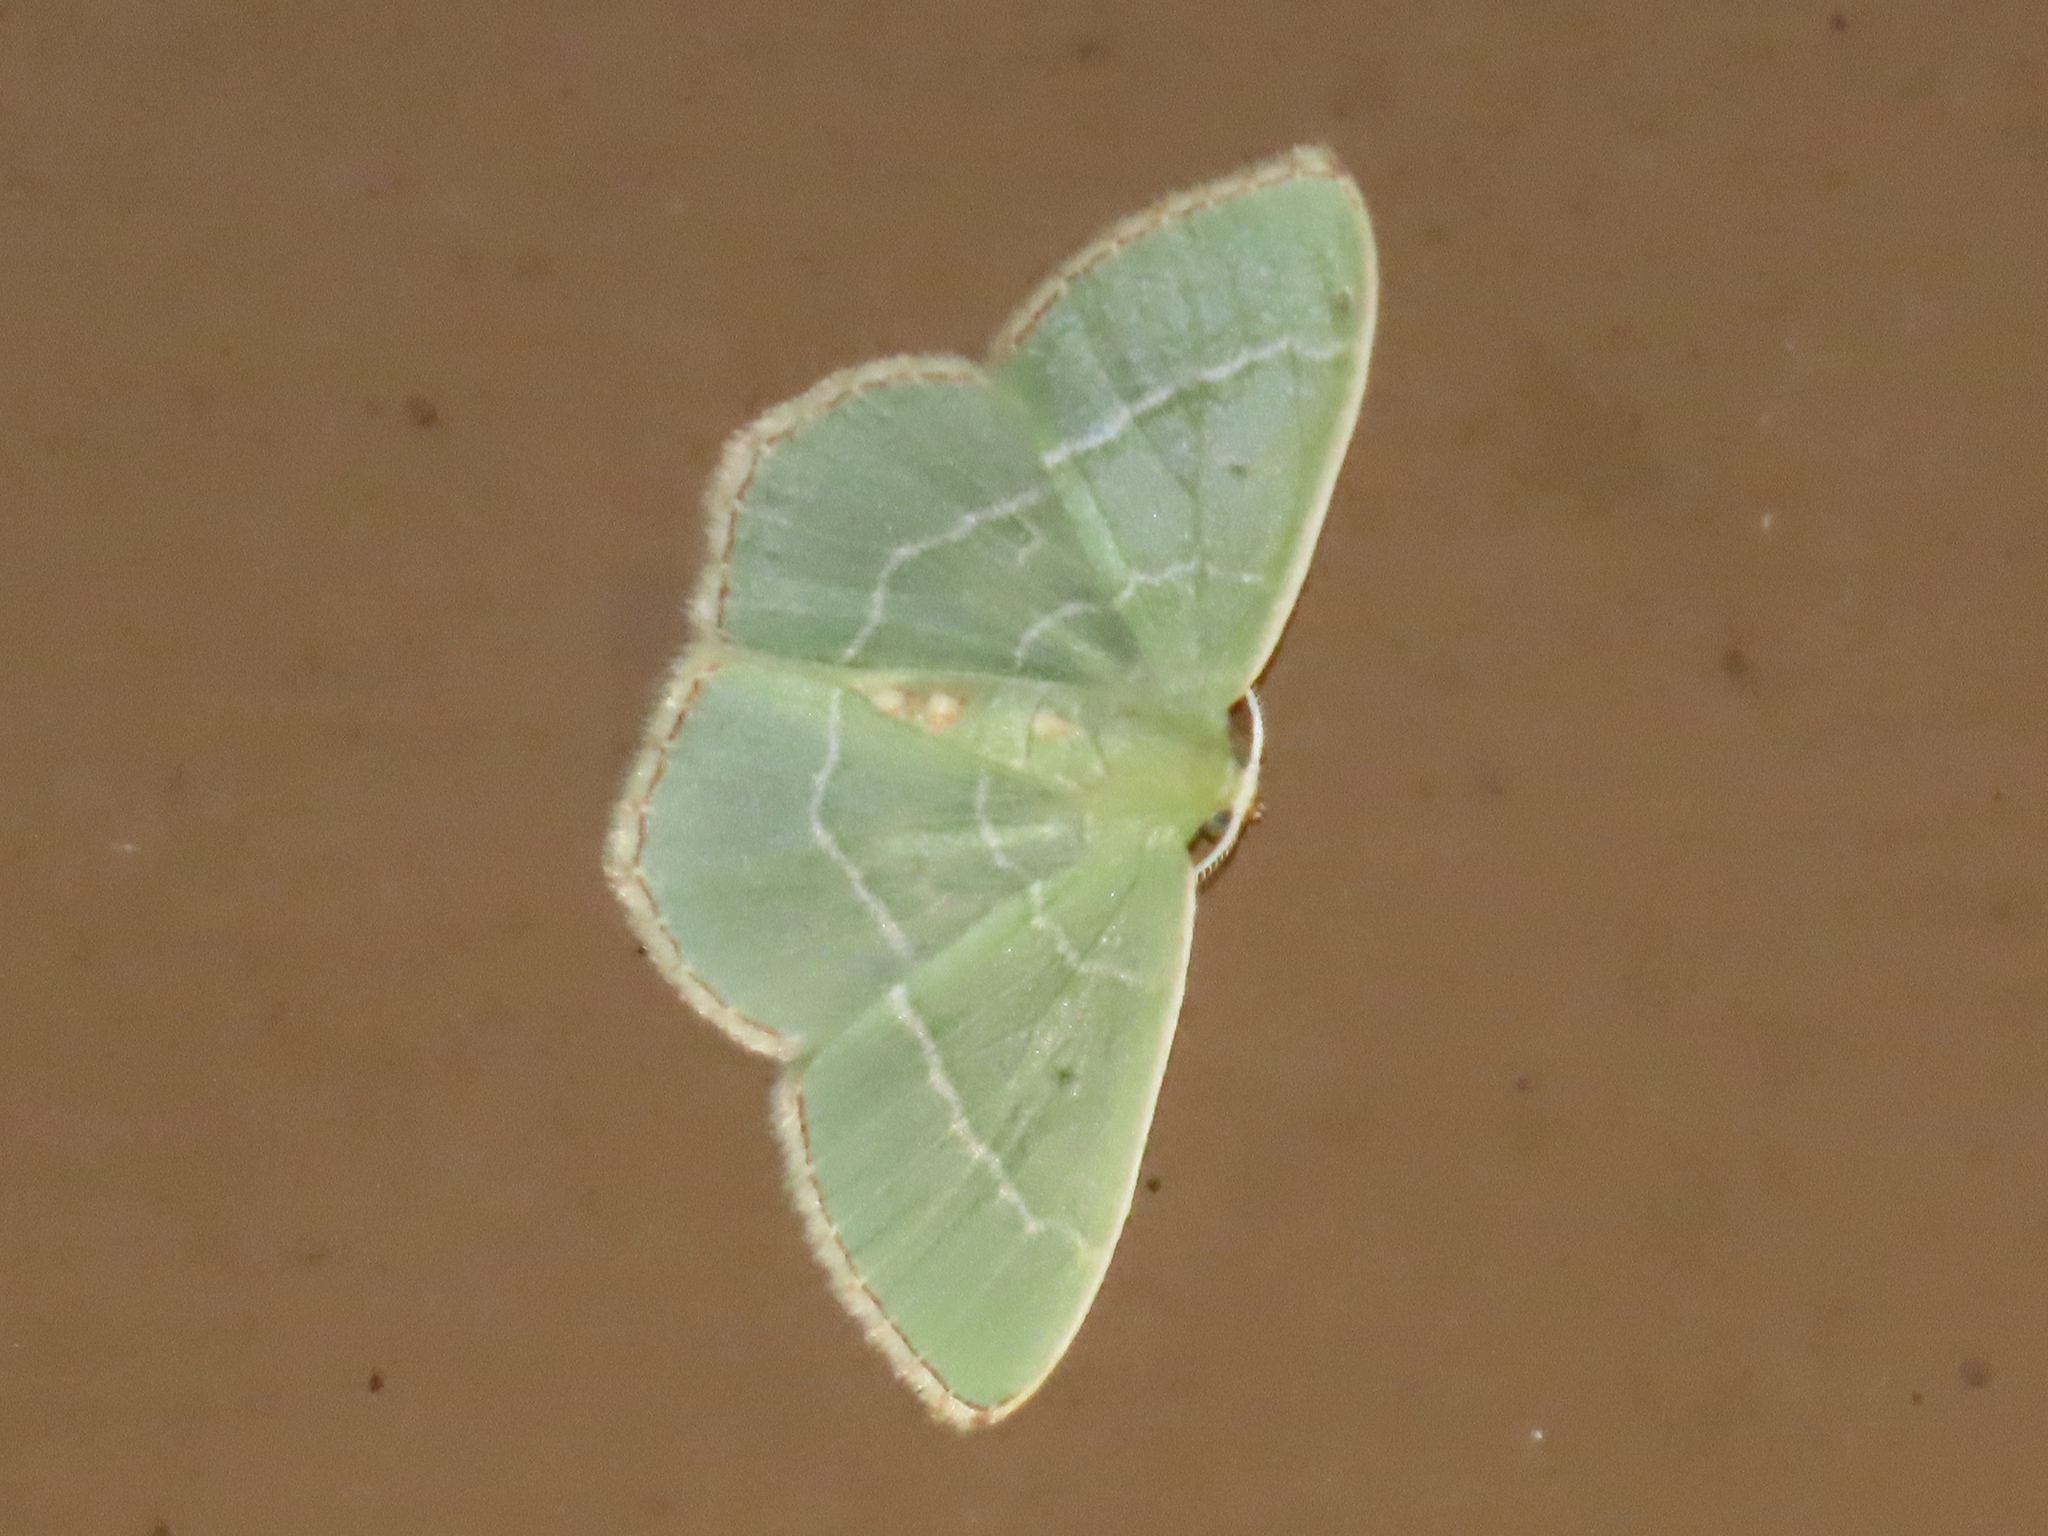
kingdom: Animalia
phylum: Arthropoda
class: Insecta
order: Lepidoptera
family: Geometridae
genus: Nemoria
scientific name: Nemoria bistriaria
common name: Red-fringed emerald
